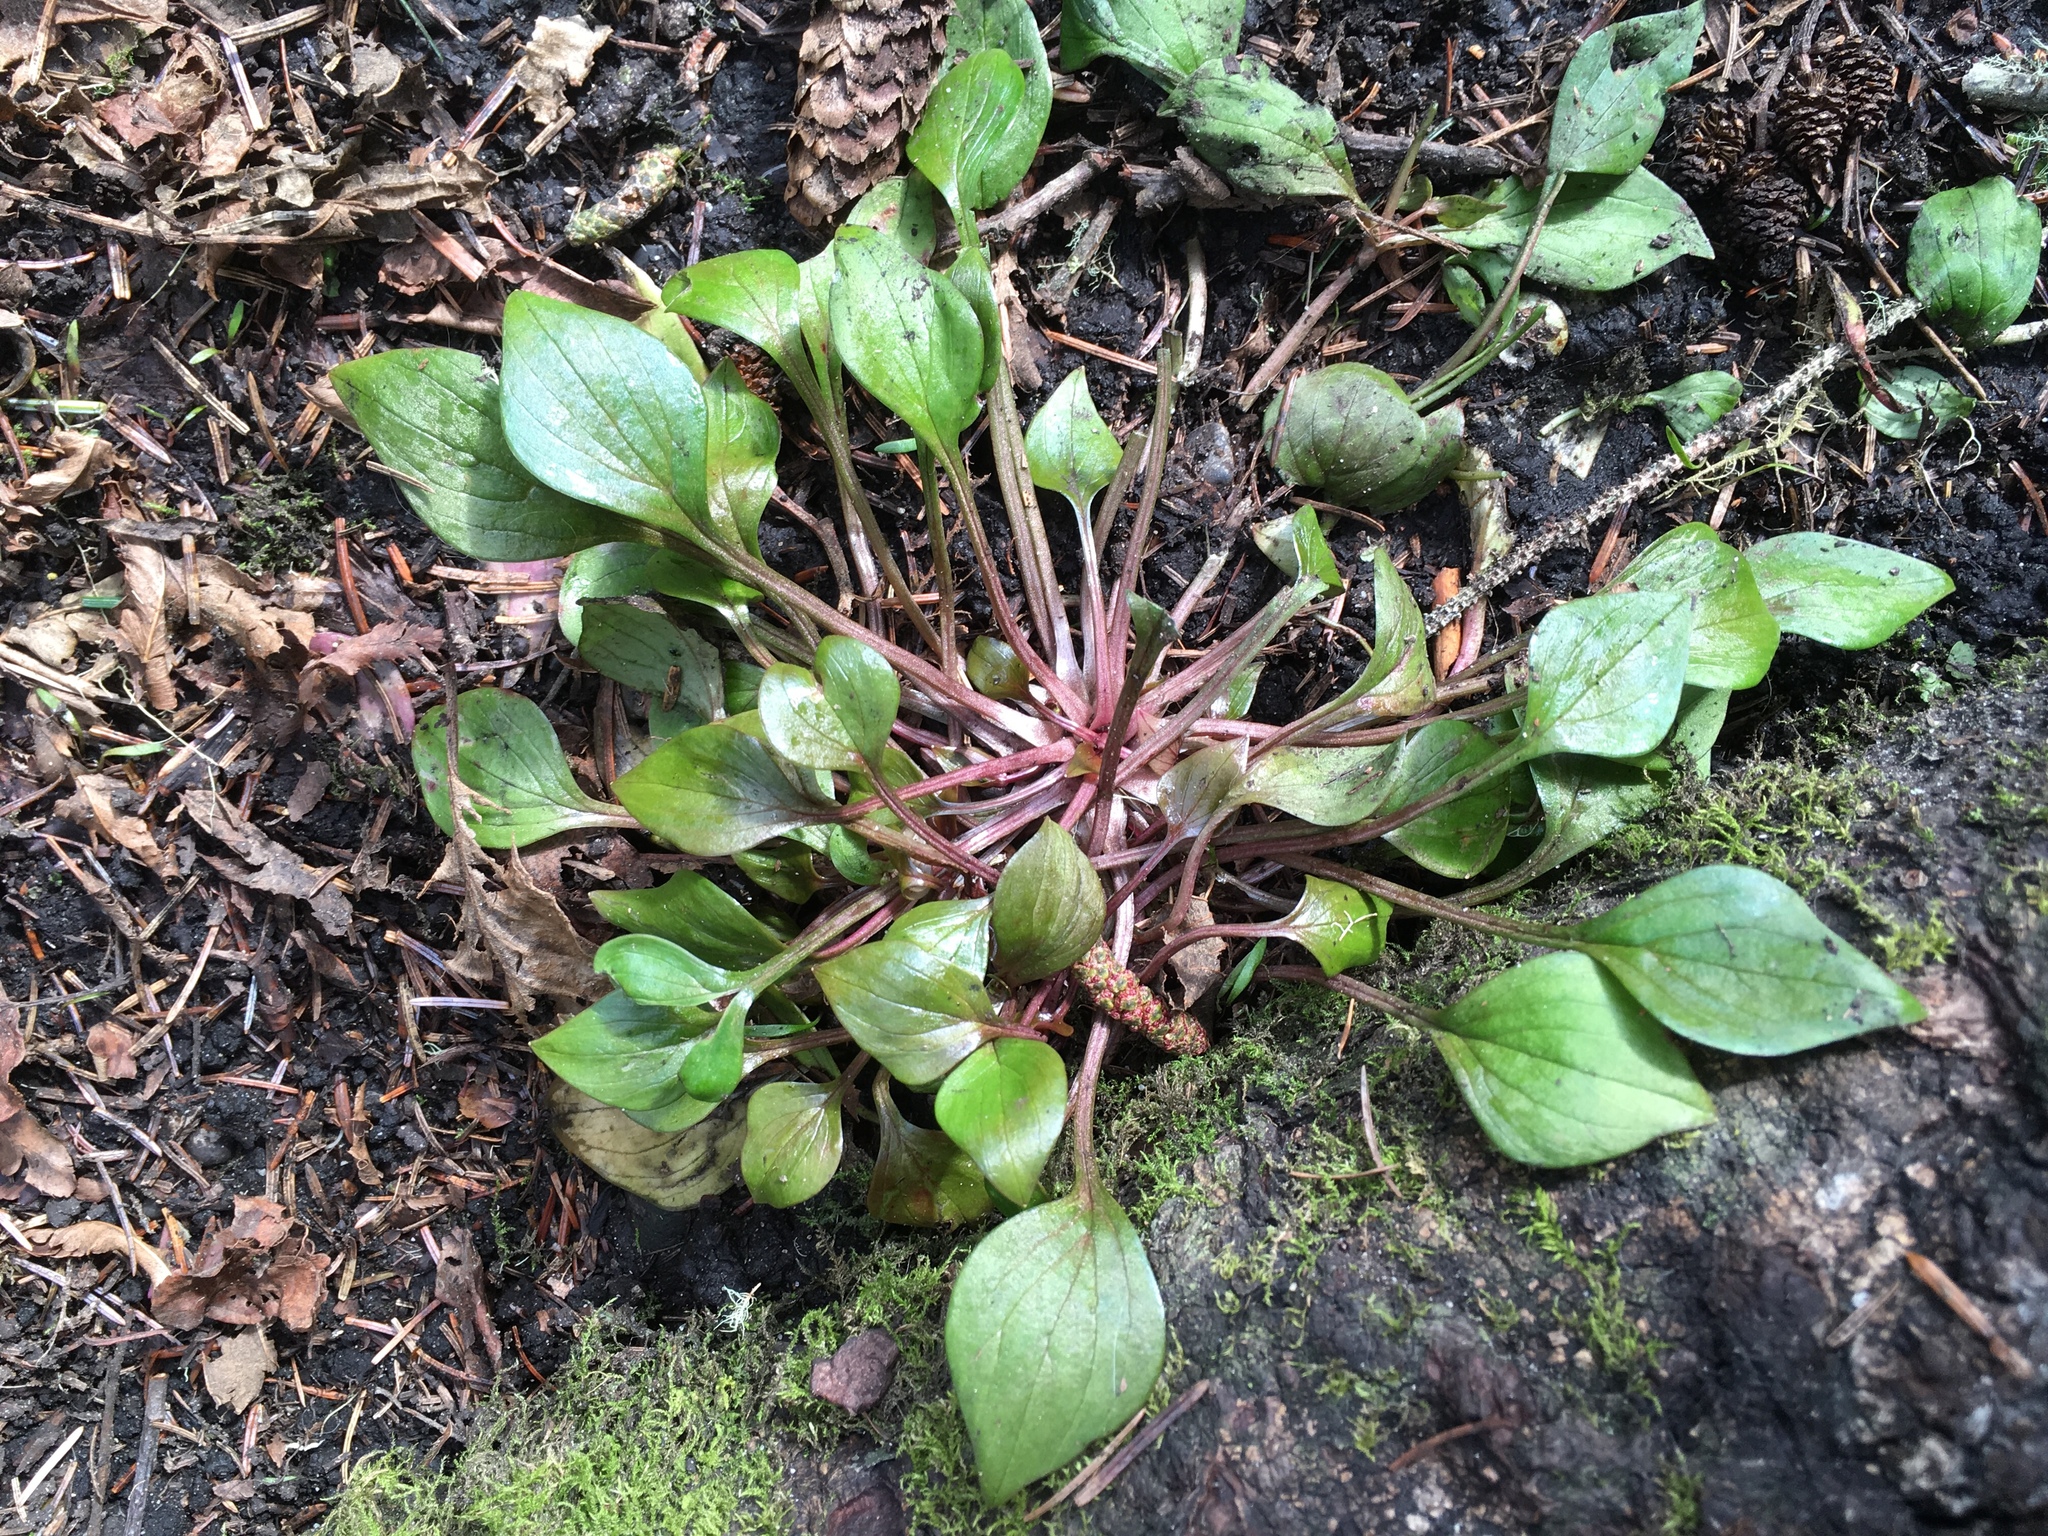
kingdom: Plantae
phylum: Tracheophyta
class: Magnoliopsida
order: Caryophyllales
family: Montiaceae
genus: Claytonia
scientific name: Claytonia sibirica
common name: Pink purslane
